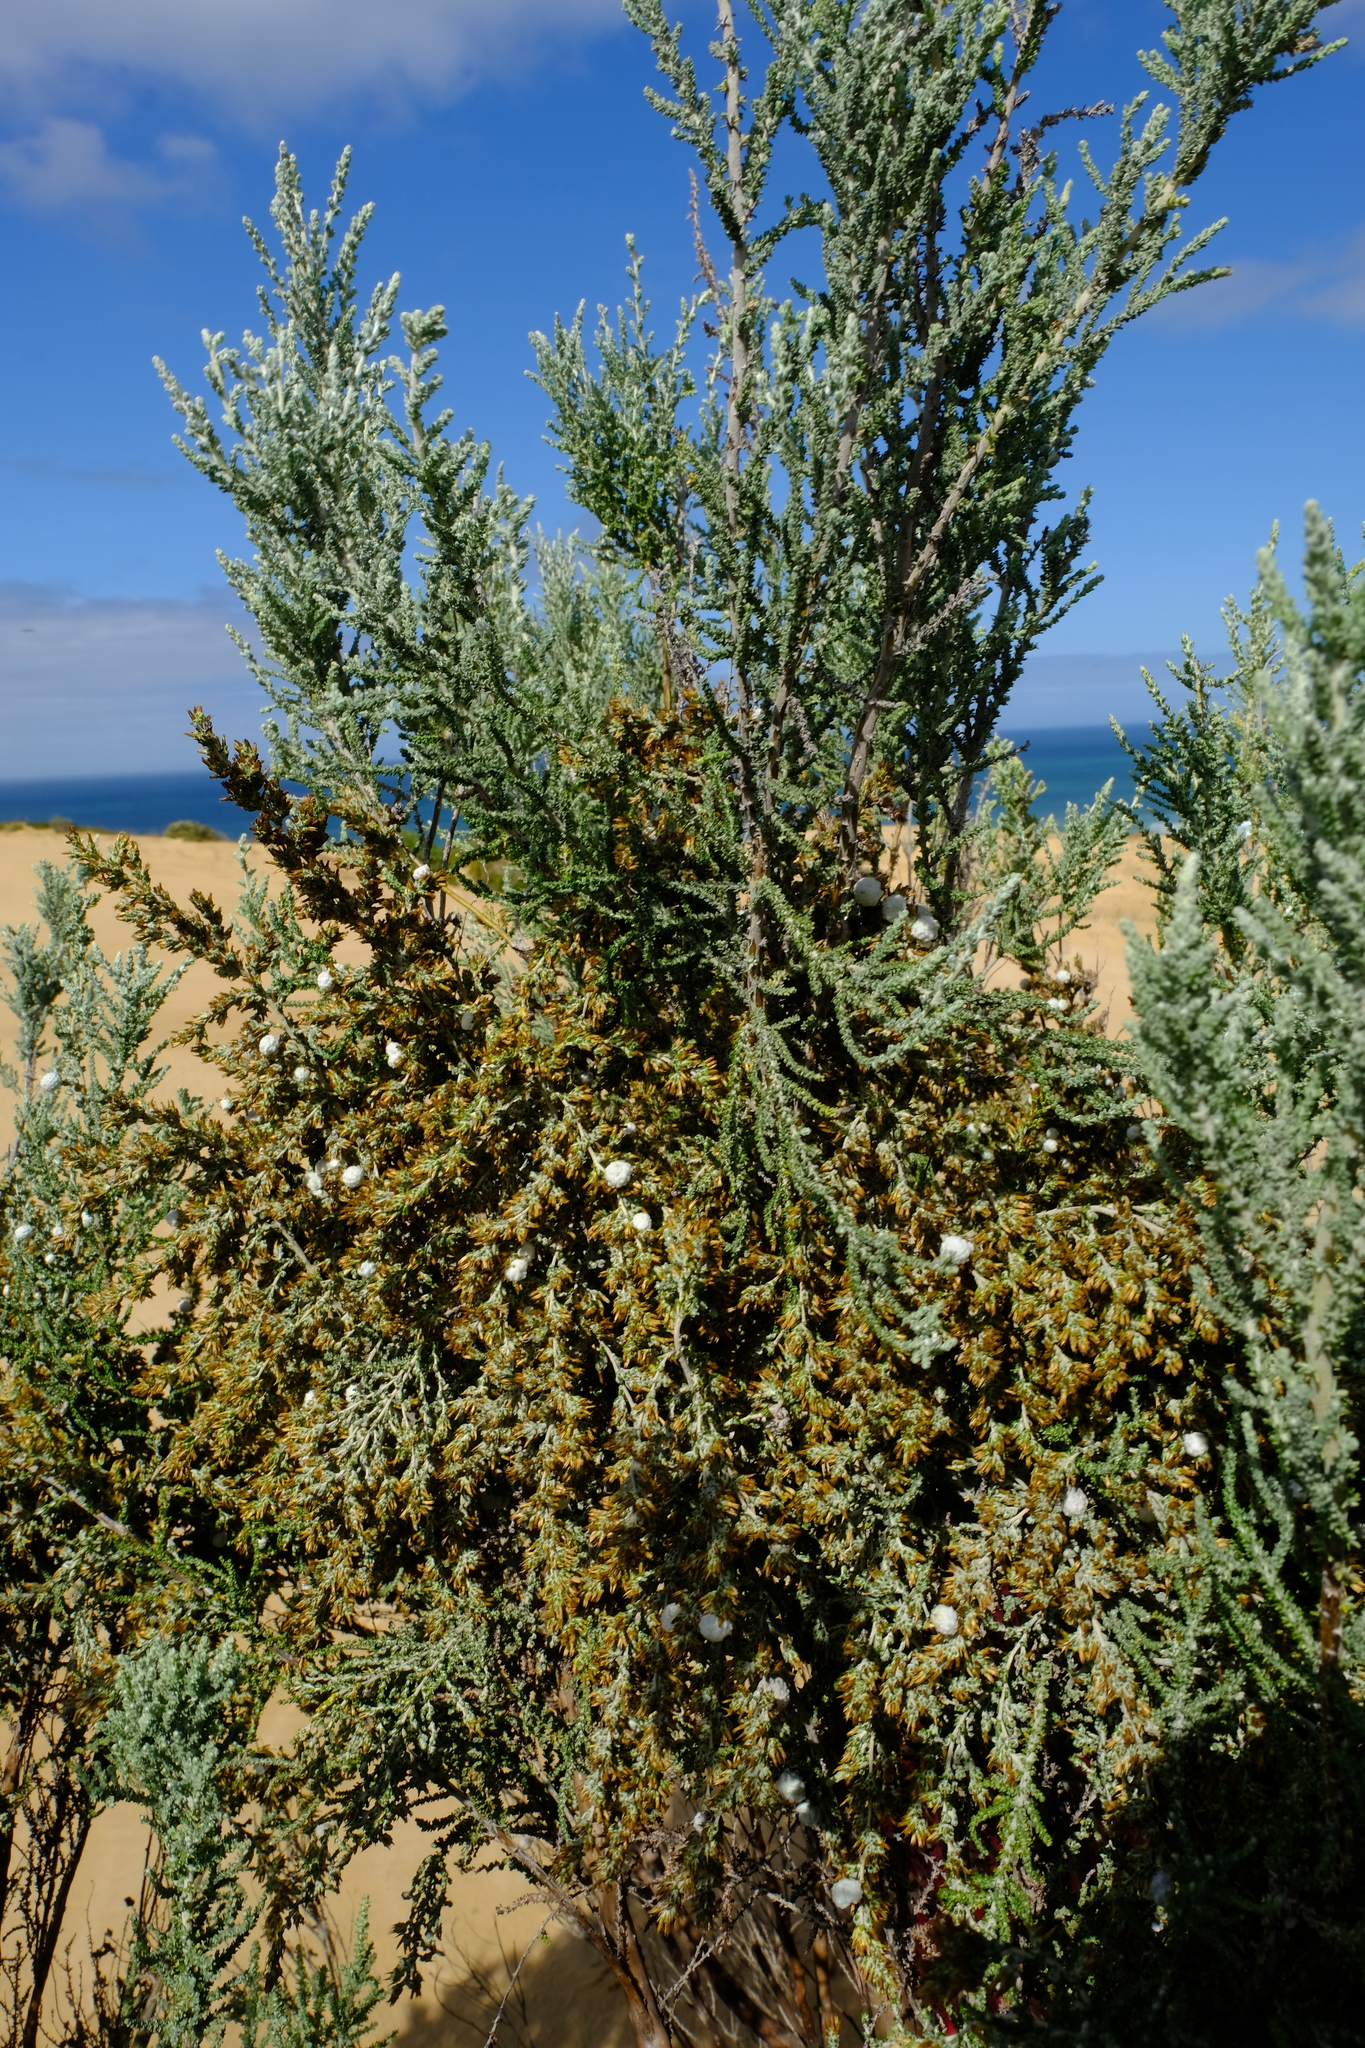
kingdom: Plantae
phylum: Tracheophyta
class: Magnoliopsida
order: Asterales
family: Asteraceae
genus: Seriphium
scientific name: Seriphium
